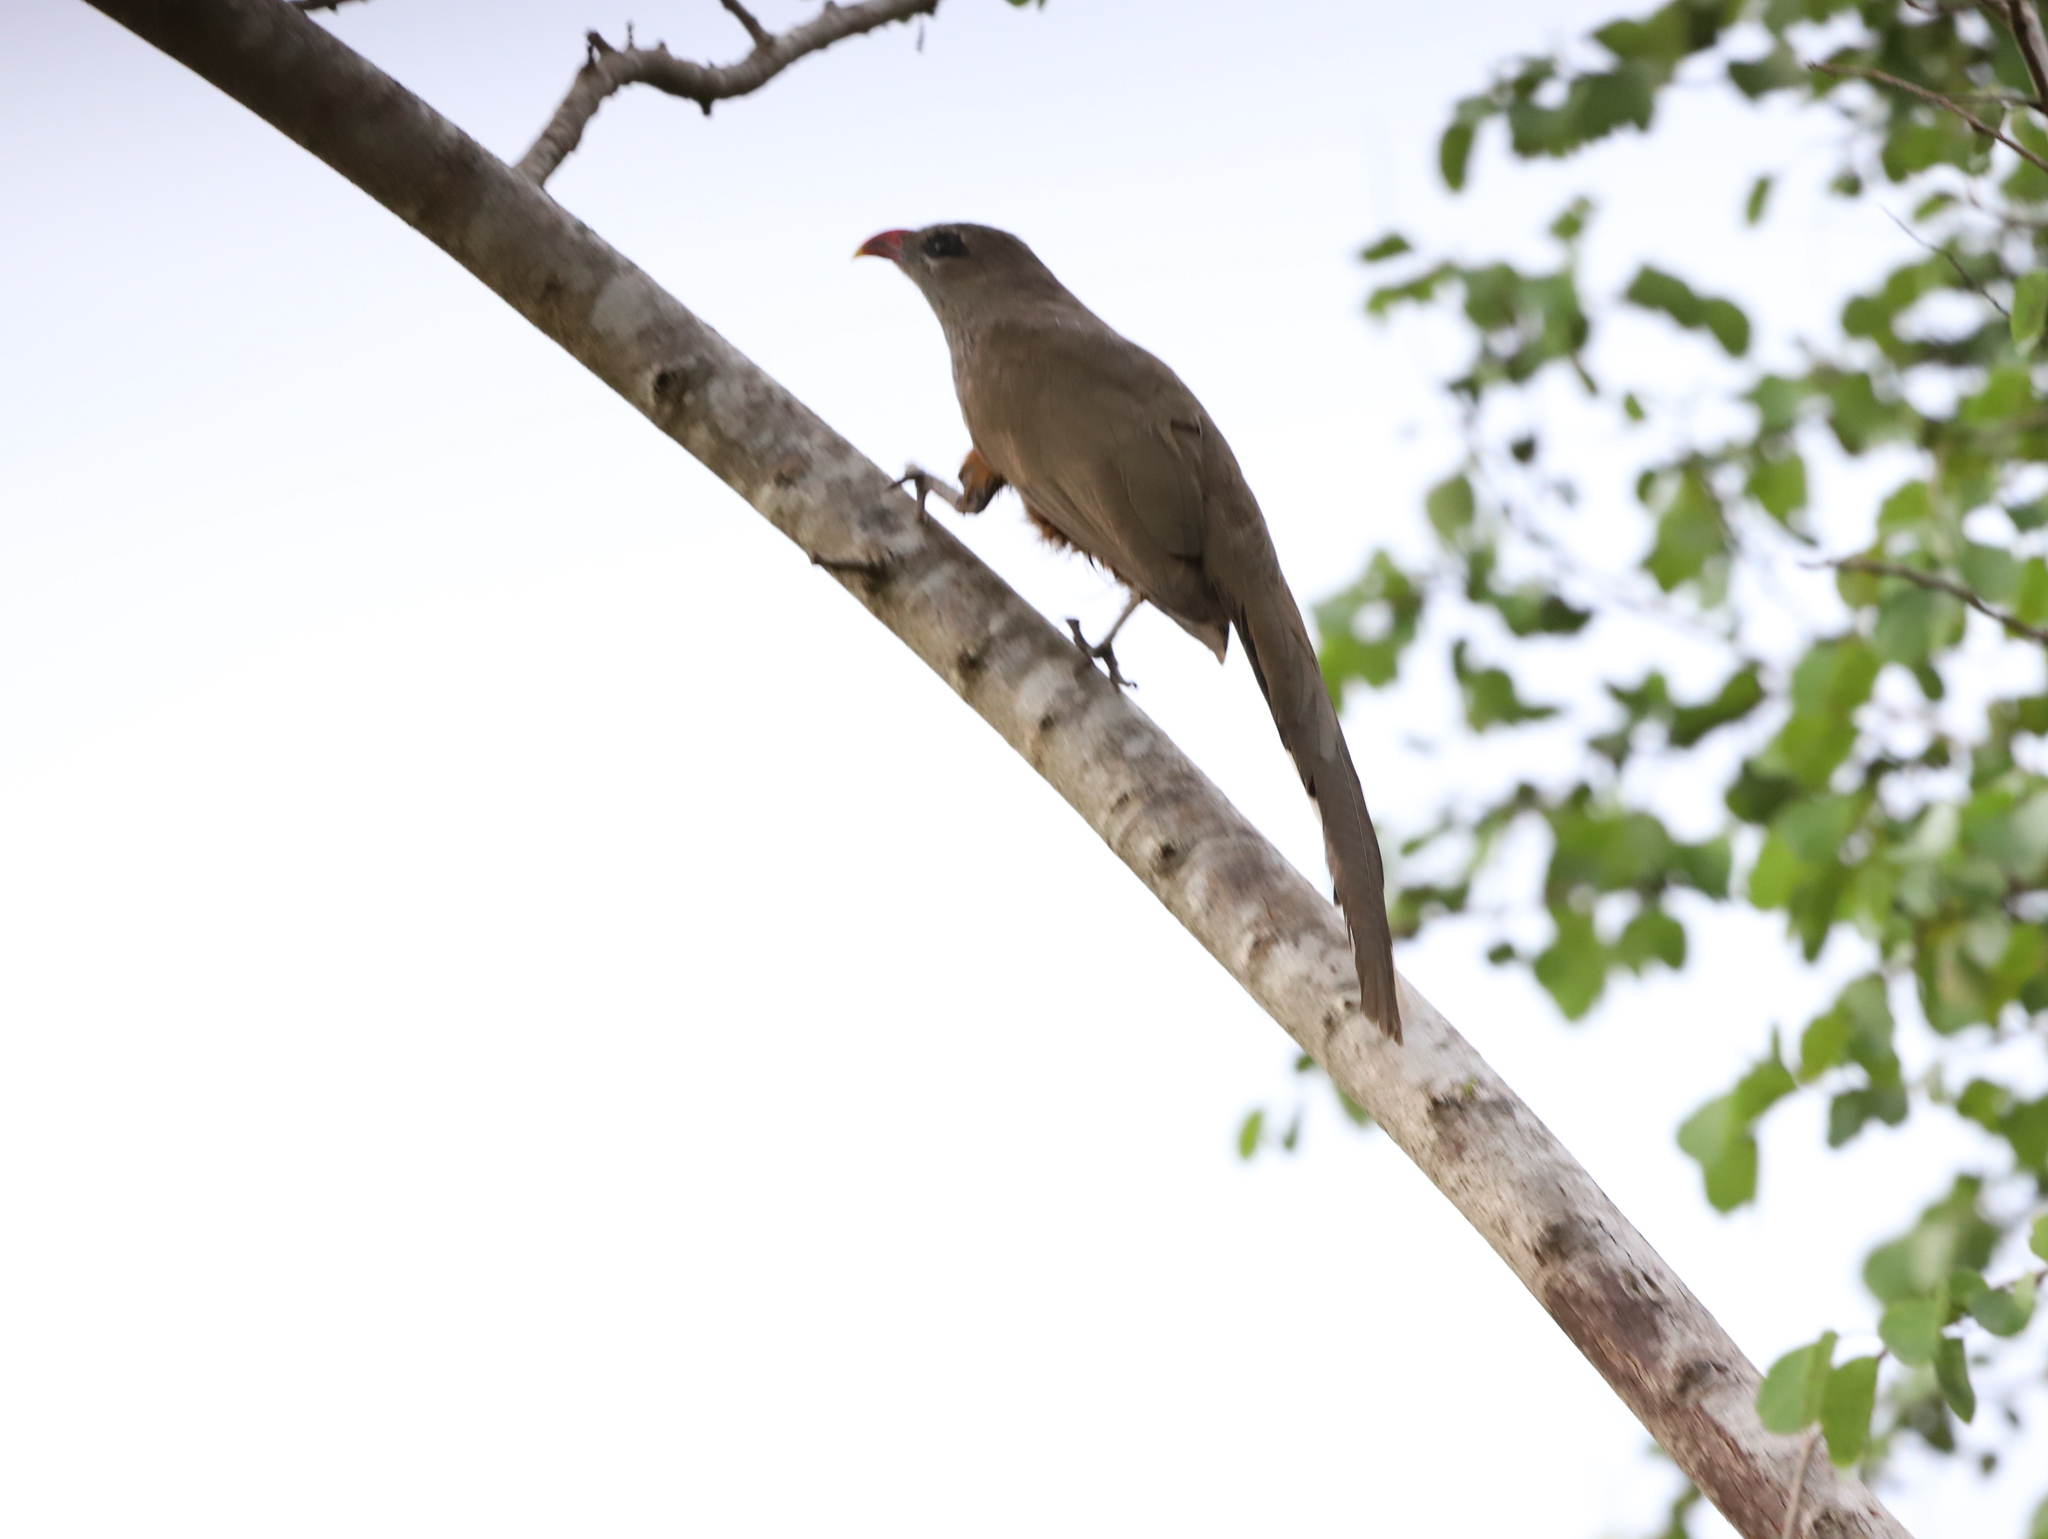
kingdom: Animalia
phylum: Chordata
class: Aves
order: Cuculiformes
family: Cuculidae
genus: Taccocua
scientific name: Taccocua leschenaultii
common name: Sirkeer malkoha
